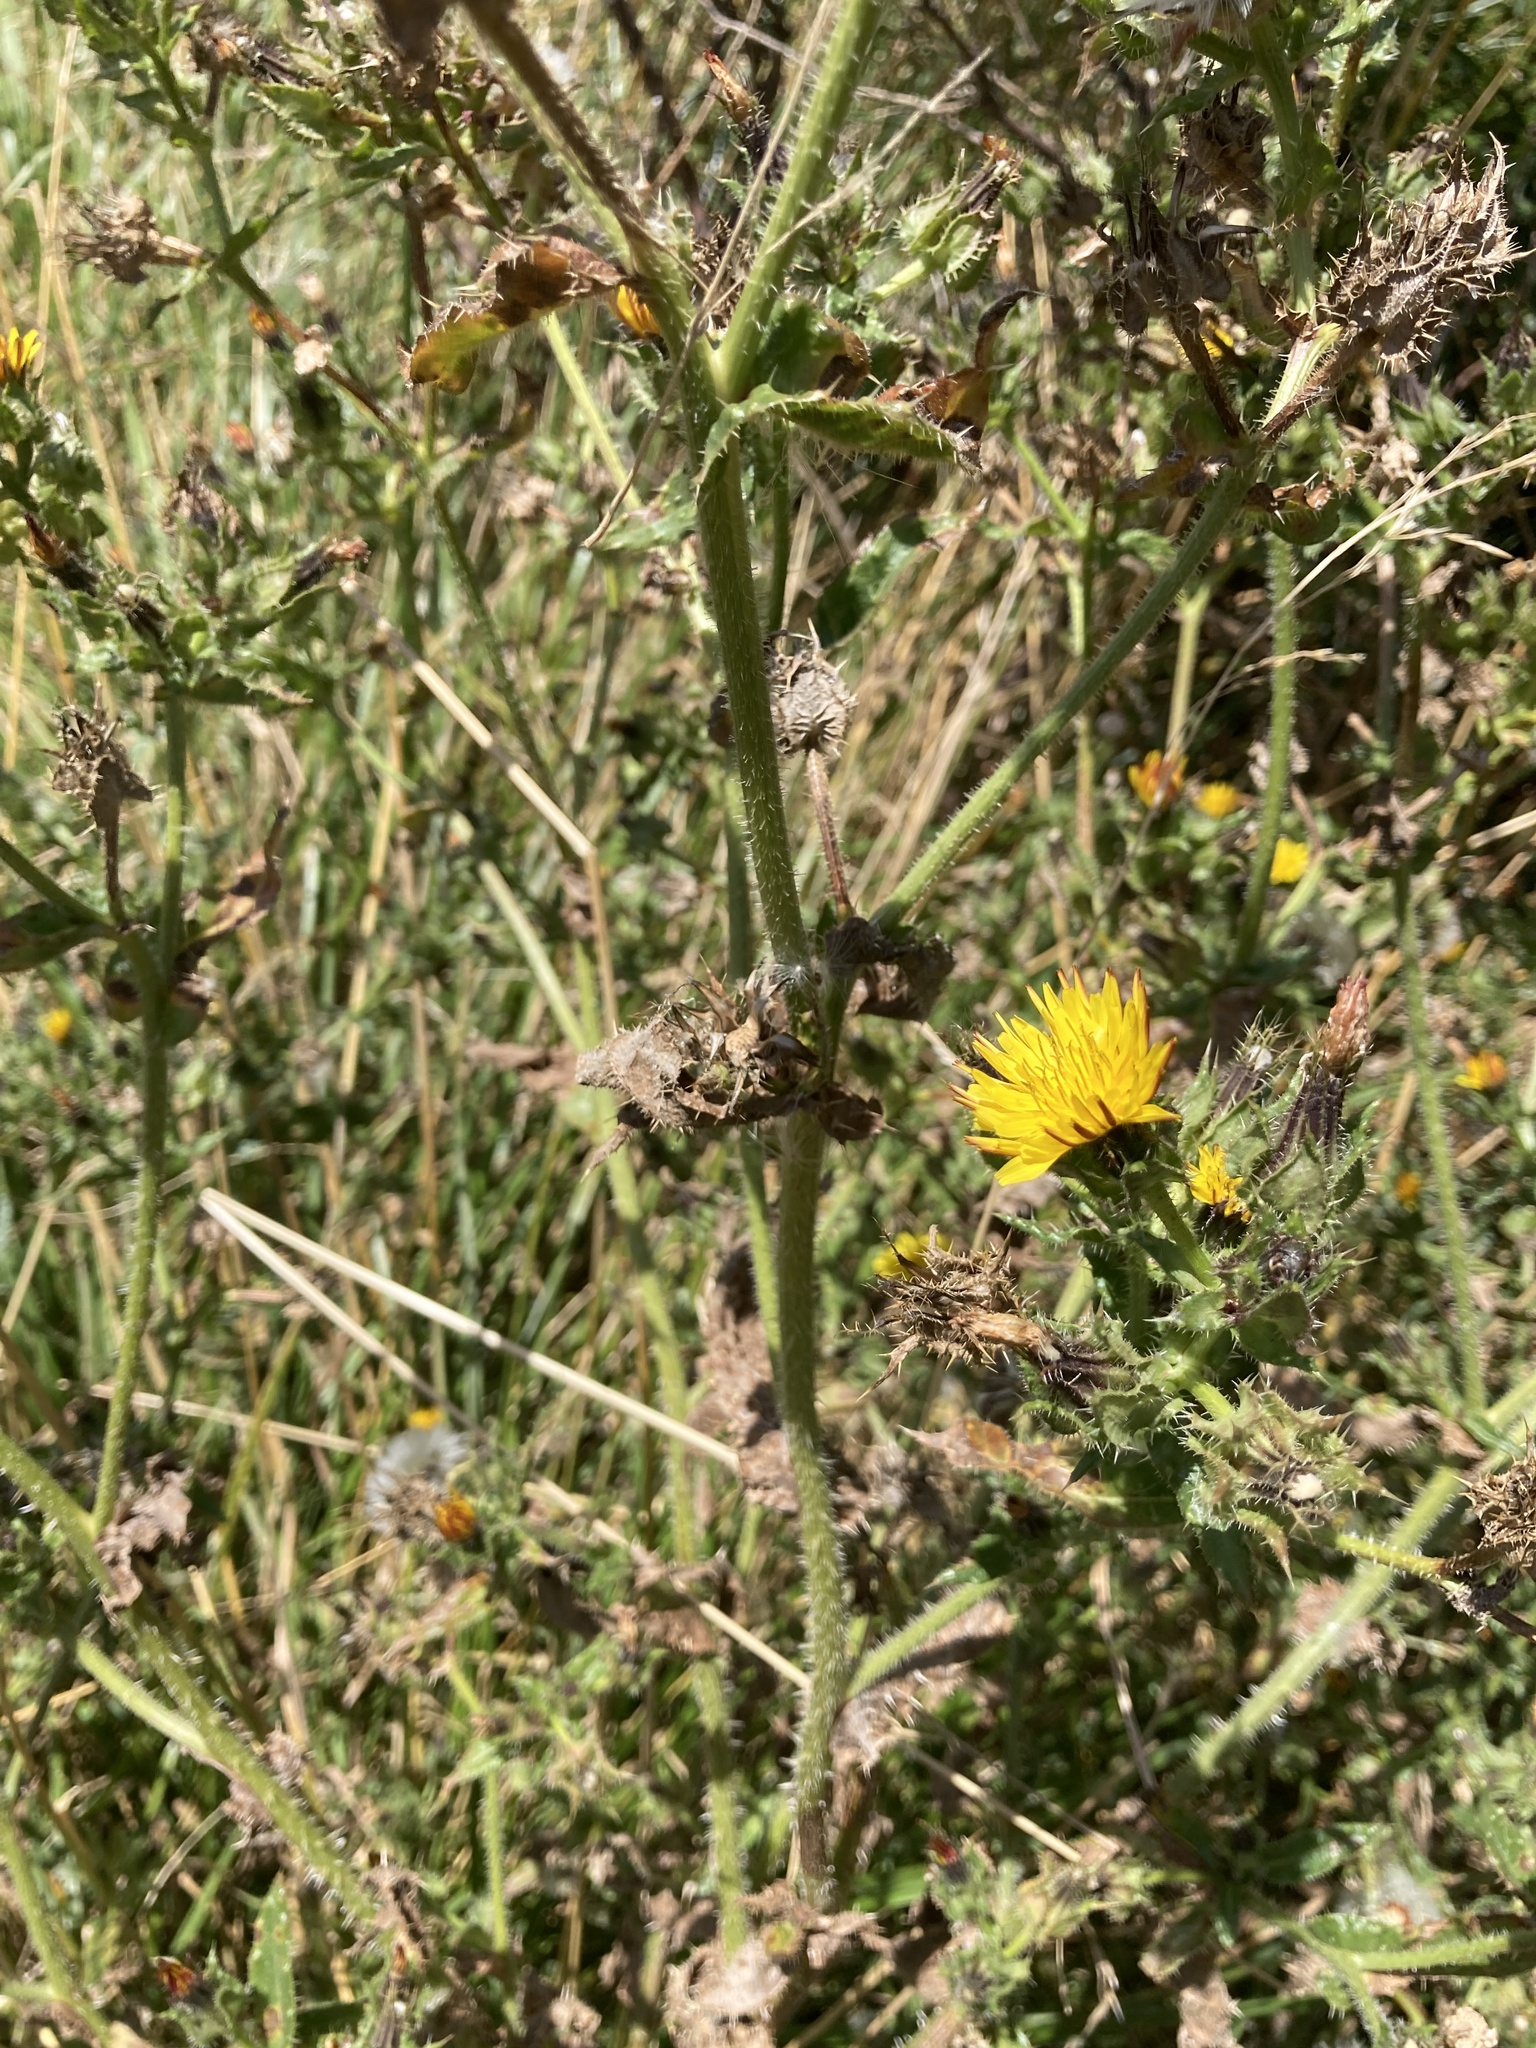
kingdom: Plantae
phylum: Tracheophyta
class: Magnoliopsida
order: Asterales
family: Asteraceae
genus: Helminthotheca
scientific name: Helminthotheca echioides
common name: Ox-tongue
